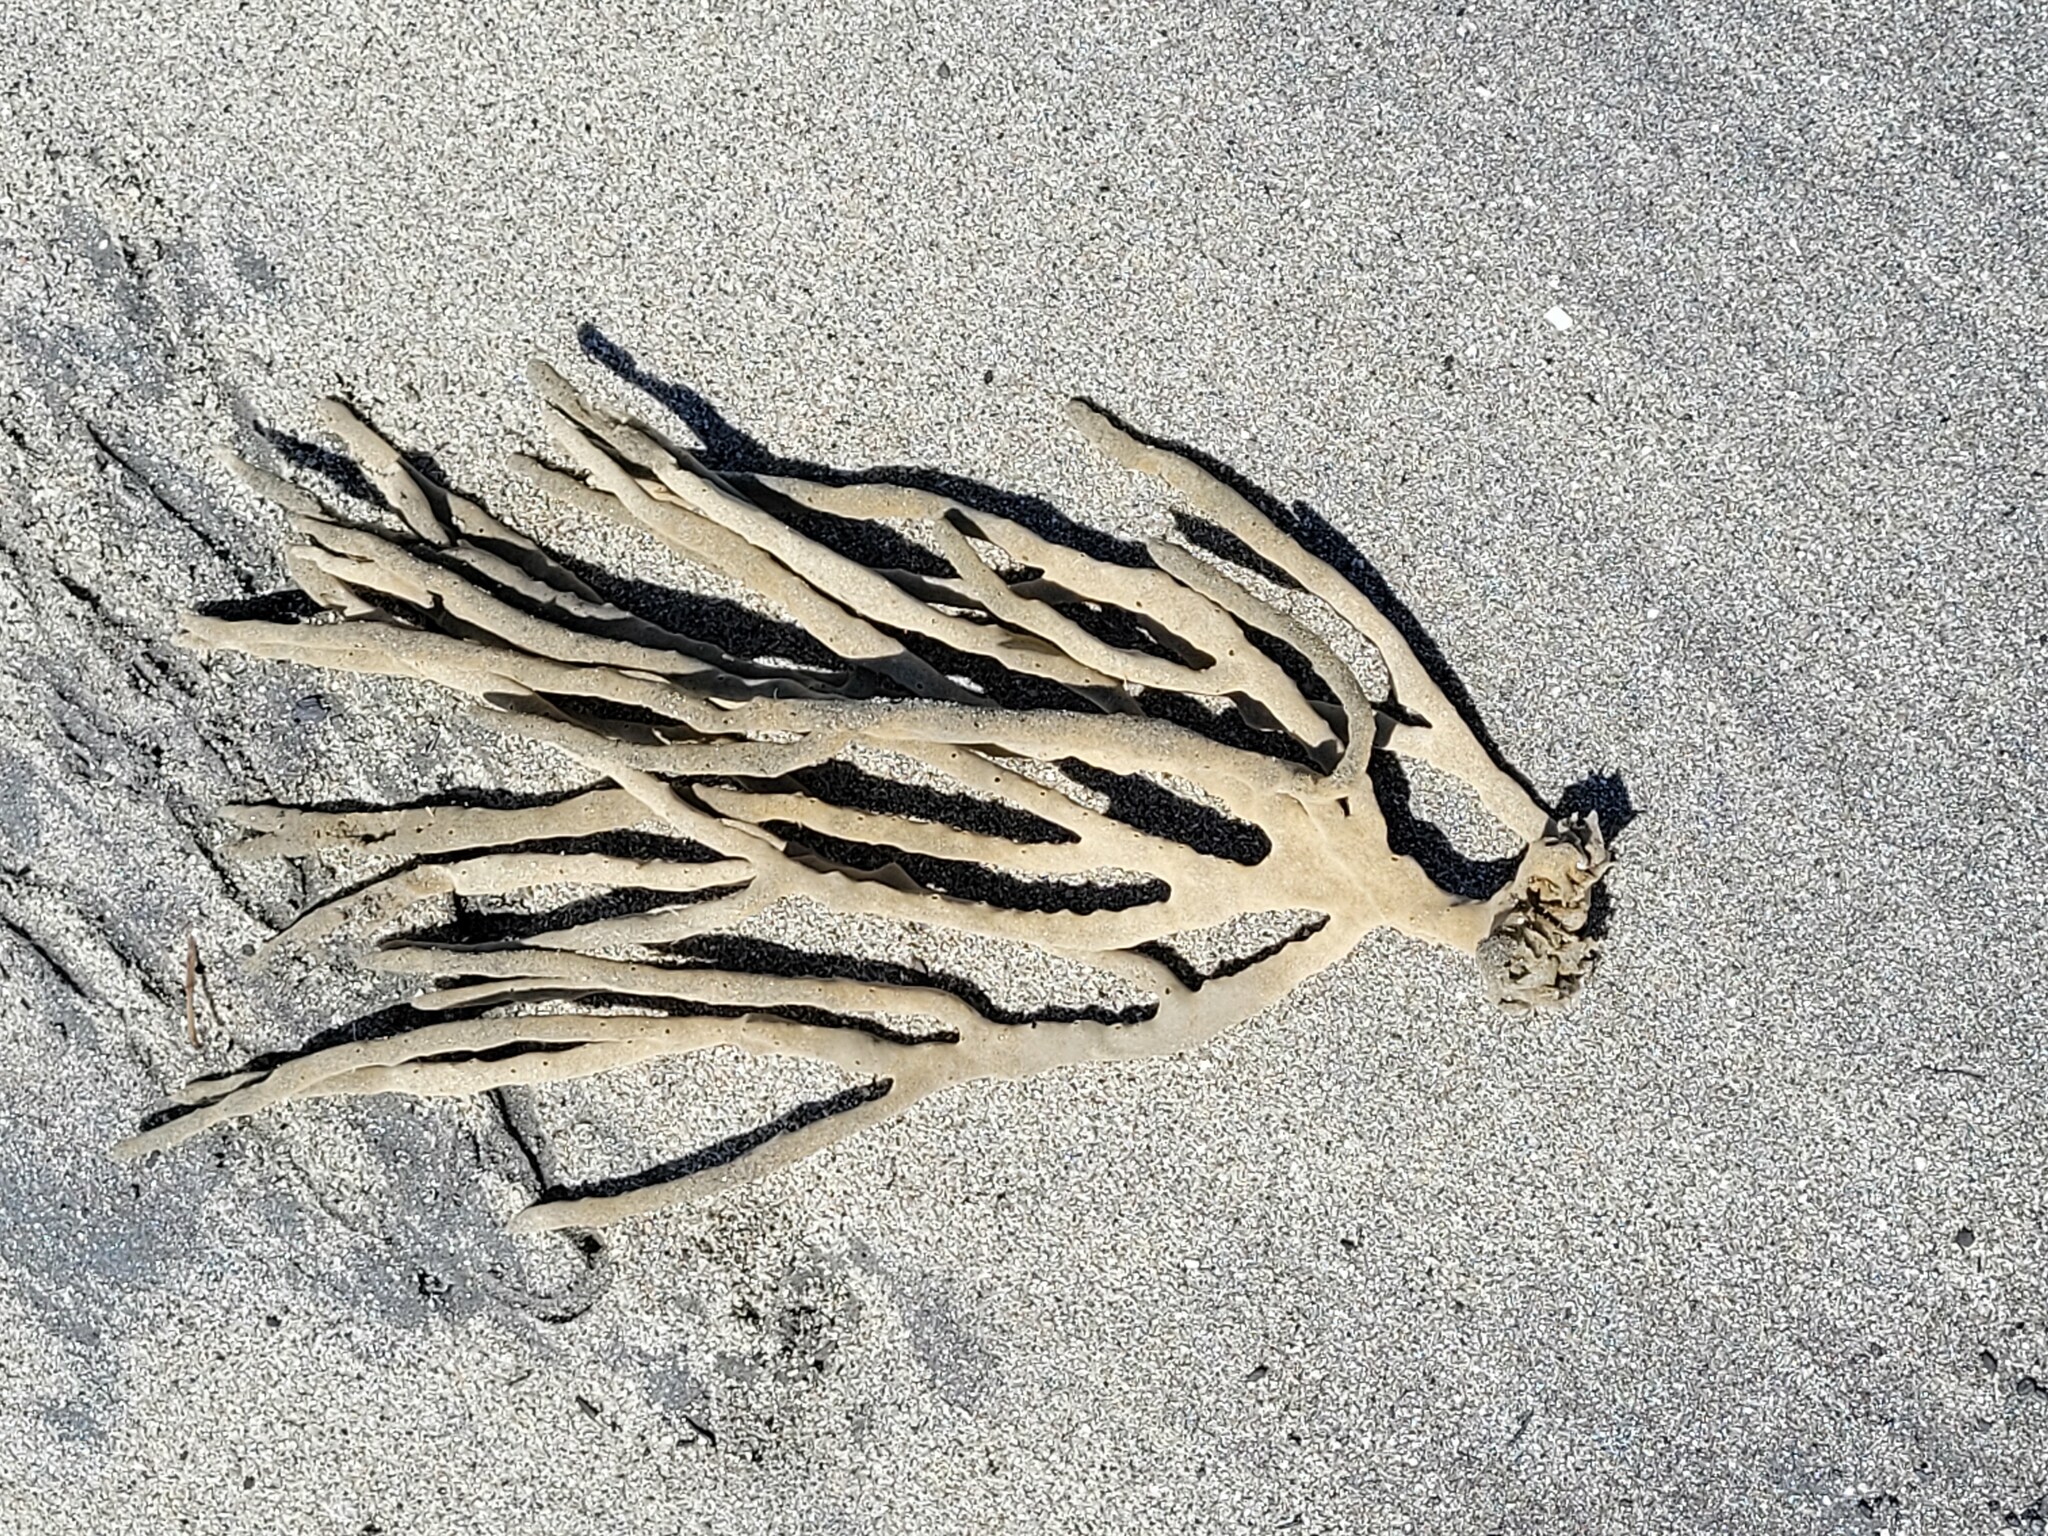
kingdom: Animalia
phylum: Porifera
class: Demospongiae
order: Haplosclerida
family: Callyspongiidae
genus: Callyspongia
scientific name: Callyspongia nuda
